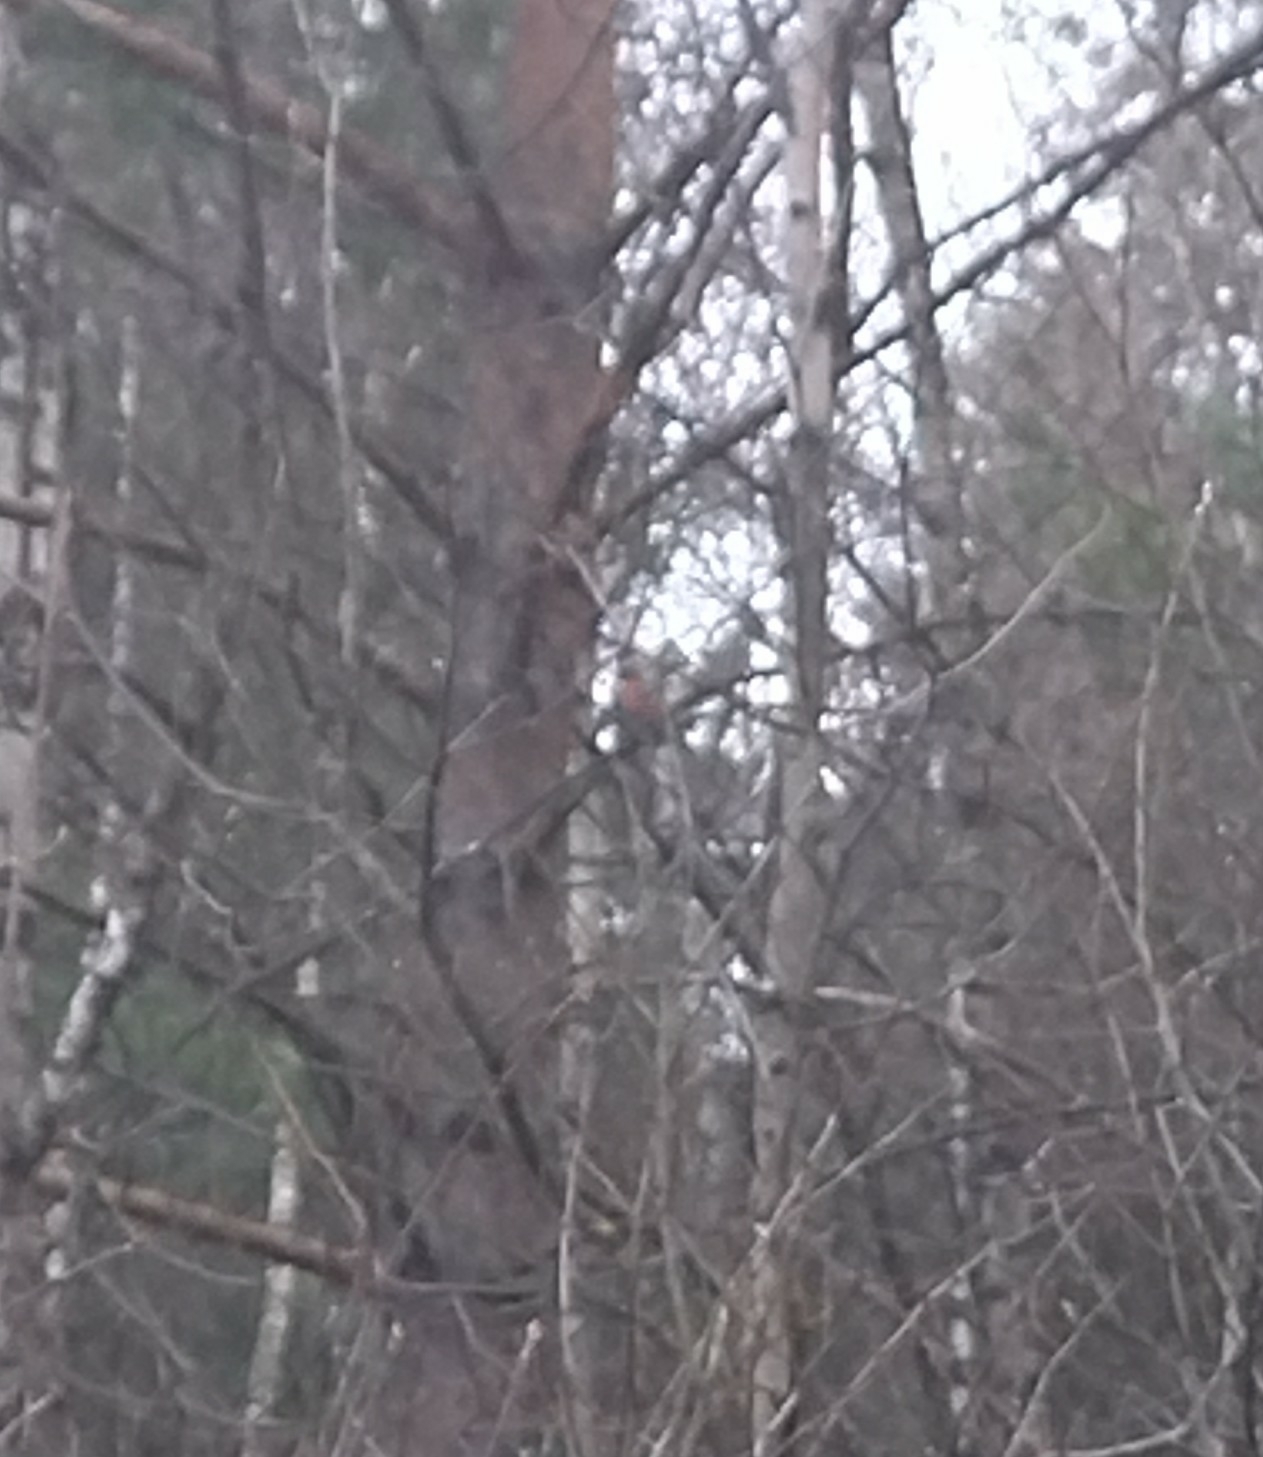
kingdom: Animalia
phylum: Chordata
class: Aves
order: Passeriformes
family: Fringillidae
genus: Pyrrhula
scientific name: Pyrrhula pyrrhula
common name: Eurasian bullfinch
